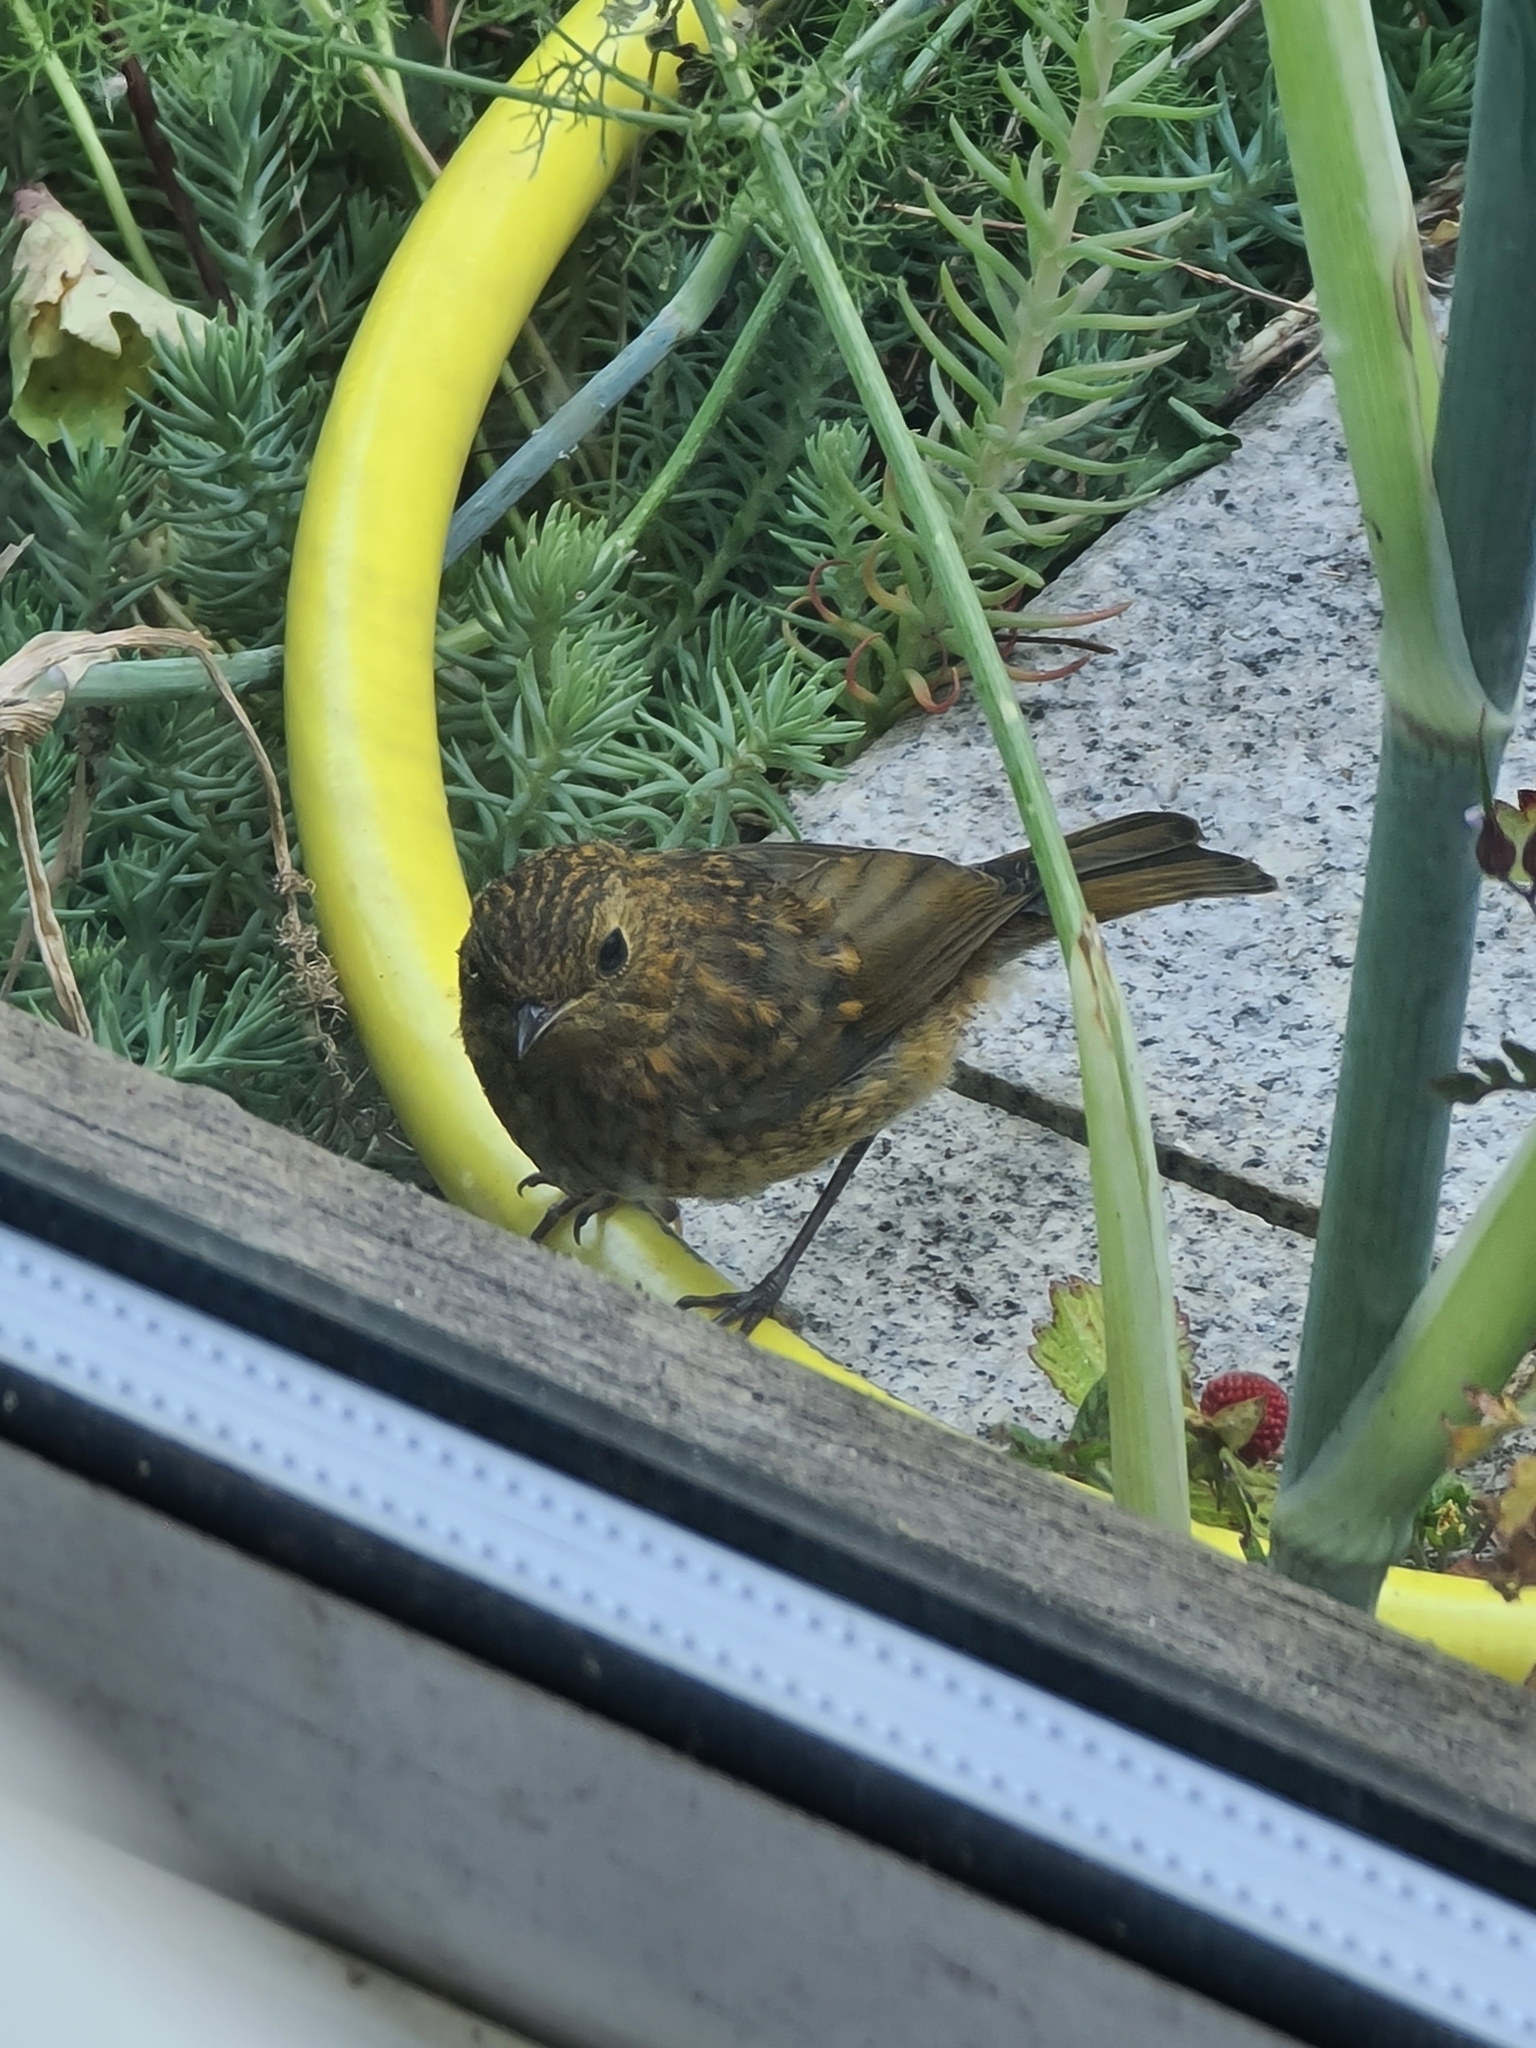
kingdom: Animalia
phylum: Chordata
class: Aves
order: Passeriformes
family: Muscicapidae
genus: Erithacus
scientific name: Erithacus rubecula
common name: European robin
